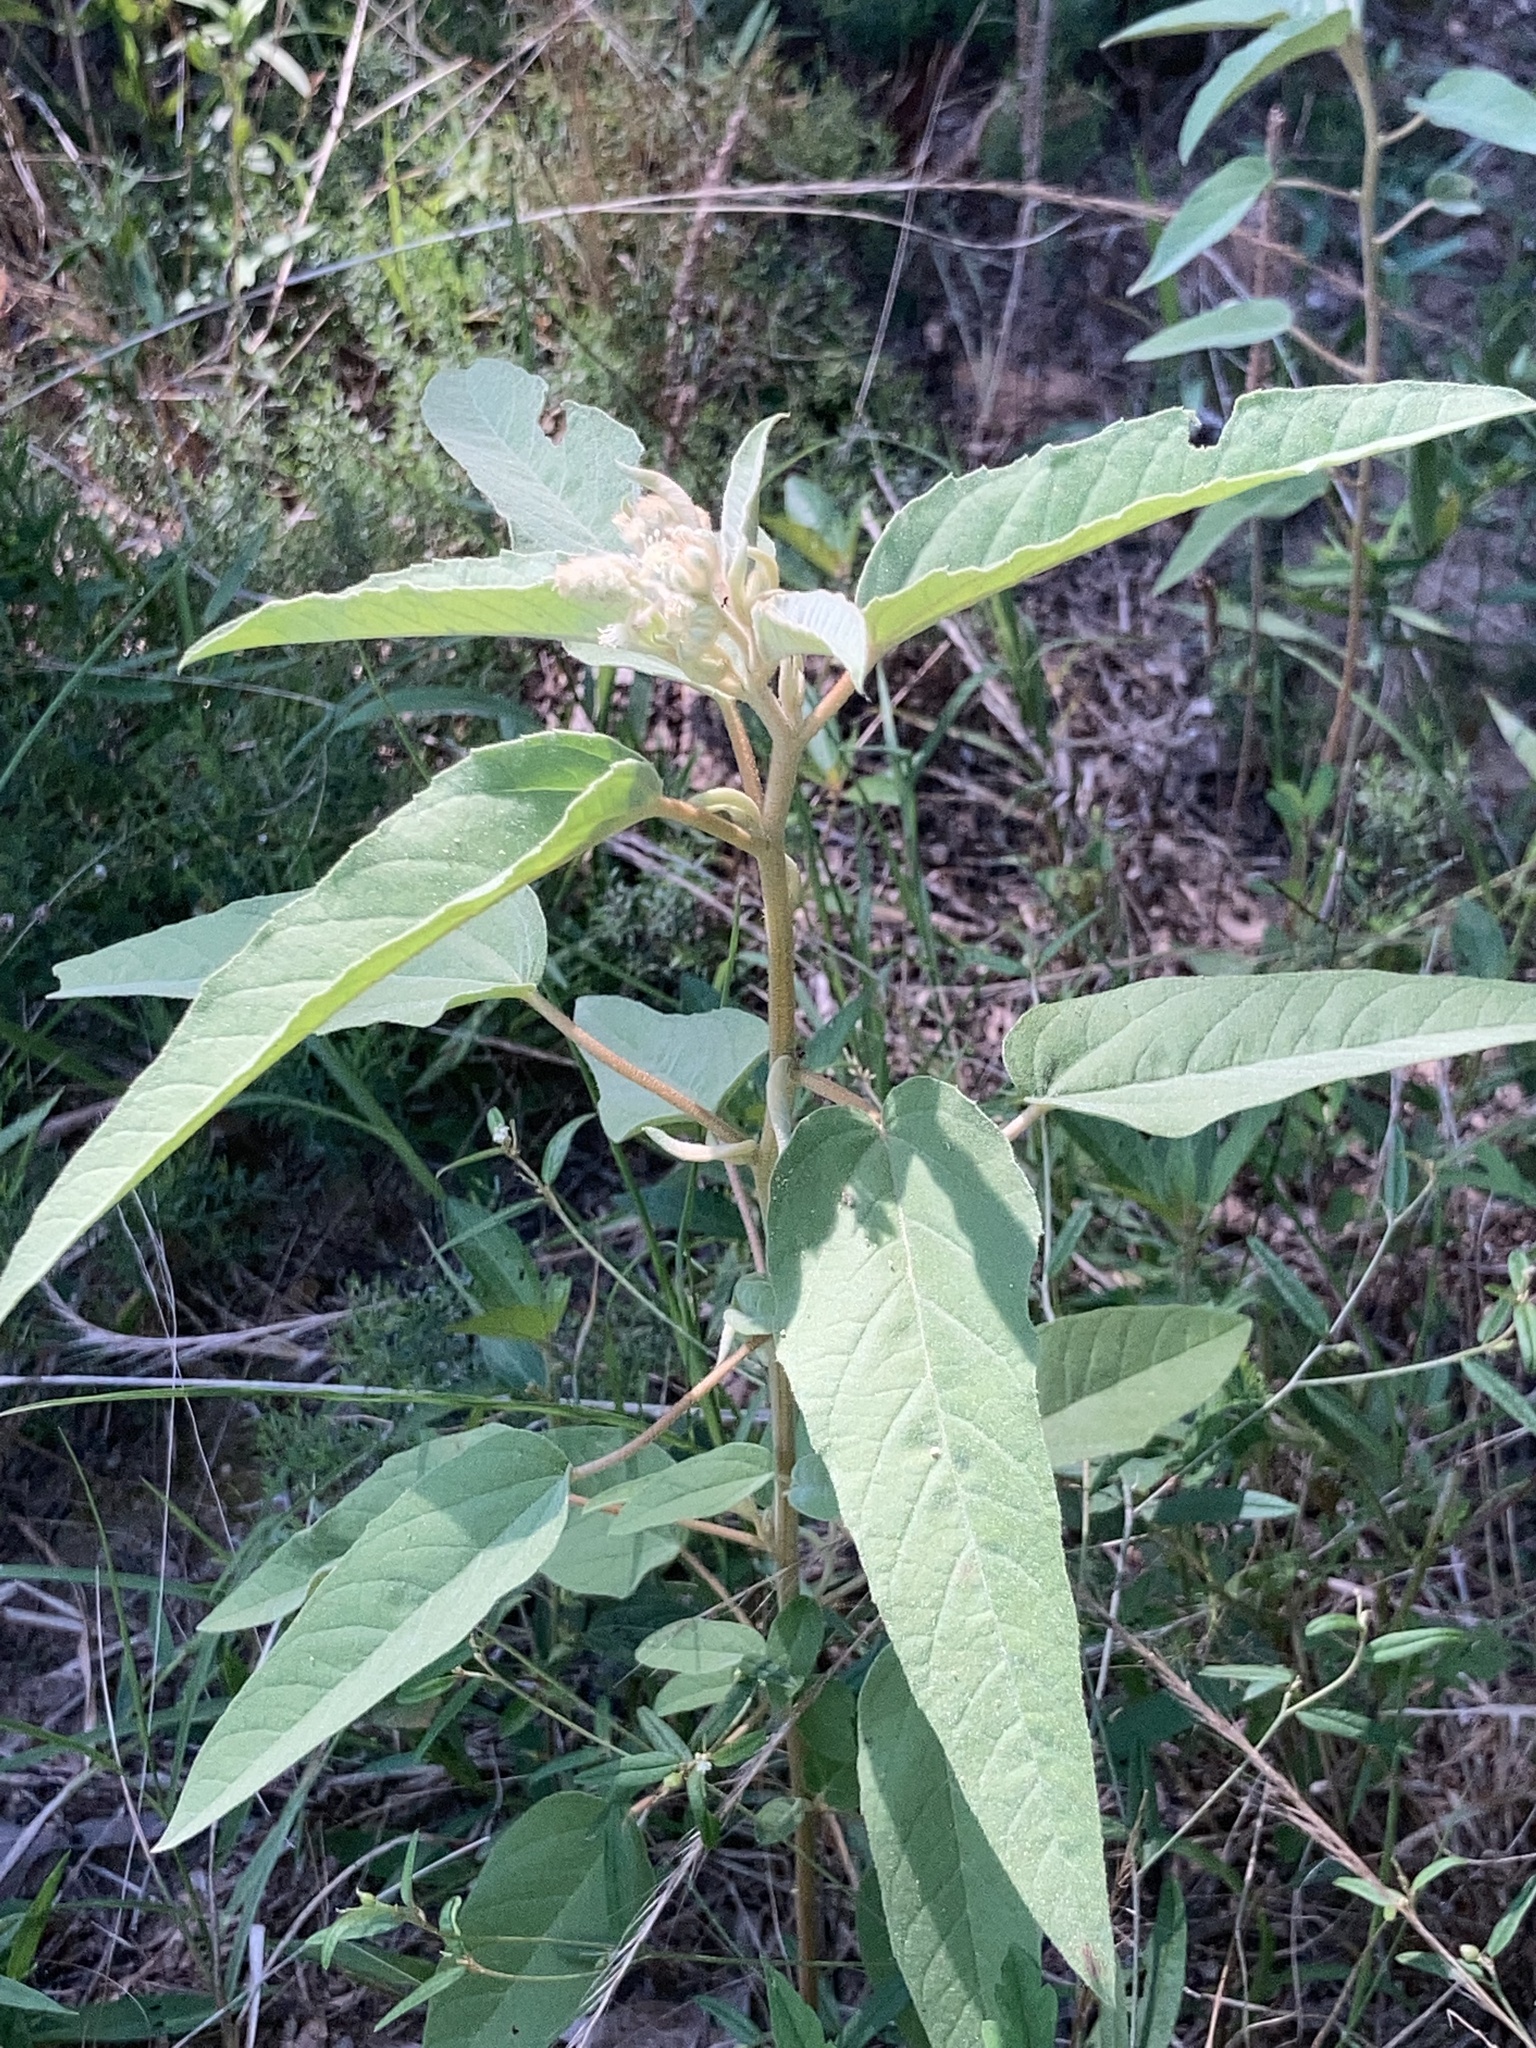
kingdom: Plantae
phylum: Tracheophyta
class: Magnoliopsida
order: Malpighiales
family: Euphorbiaceae
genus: Croton
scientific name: Croton lindheimeri
